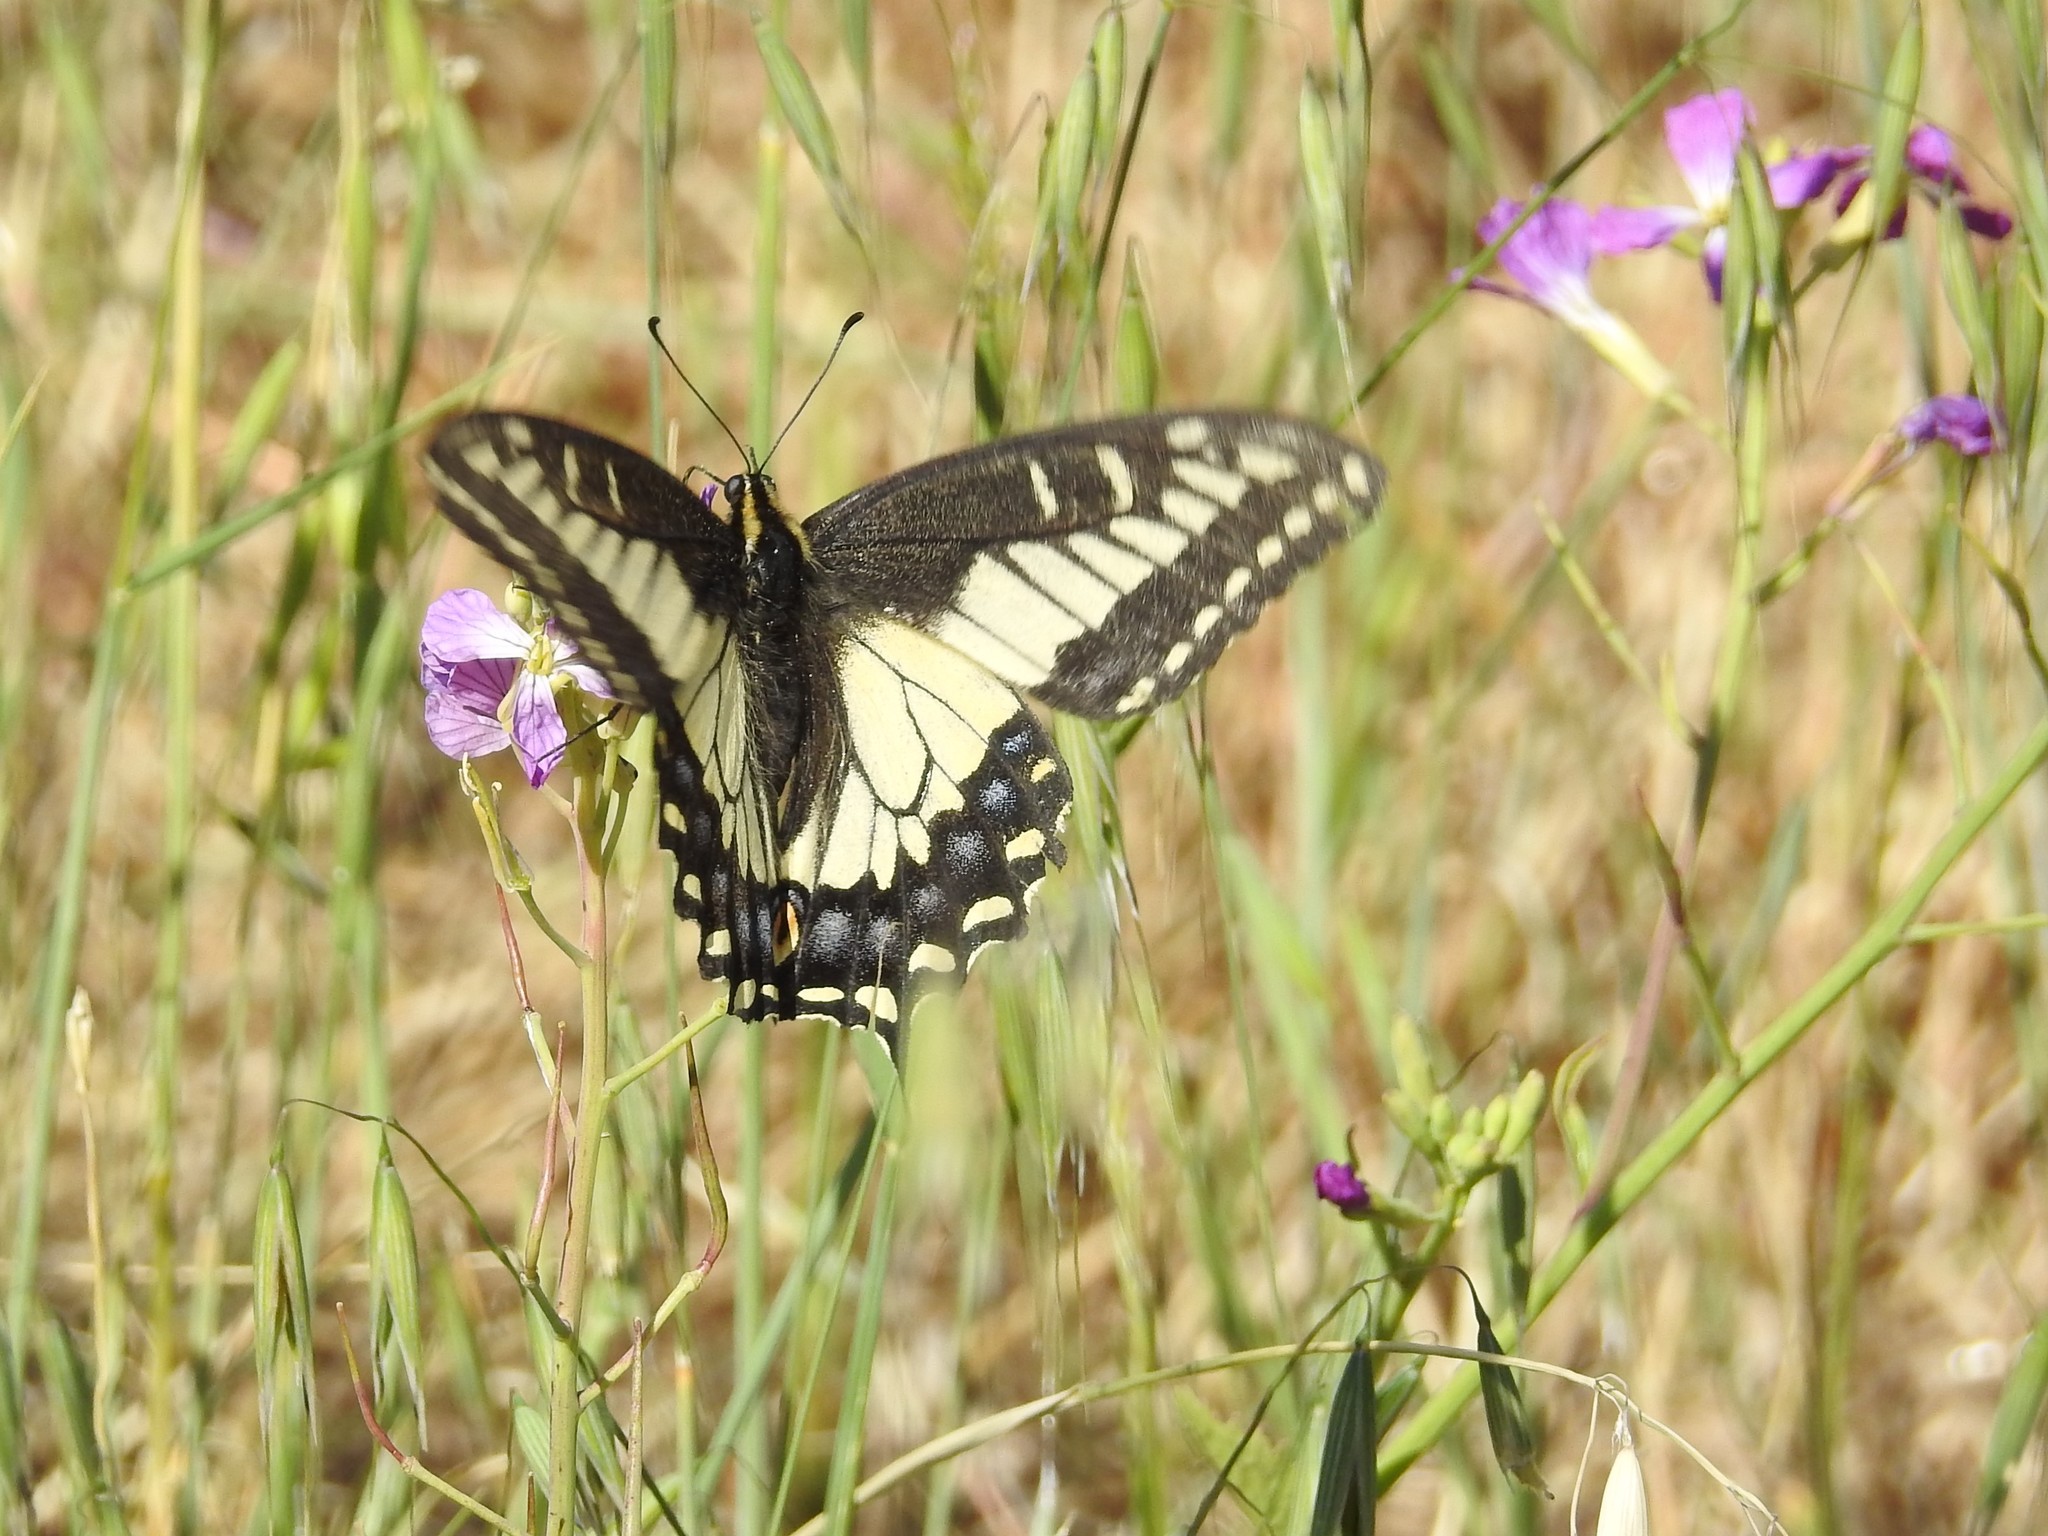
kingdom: Animalia
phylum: Arthropoda
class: Insecta
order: Lepidoptera
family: Papilionidae
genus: Papilio
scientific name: Papilio zelicaon
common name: Anise swallowtail
